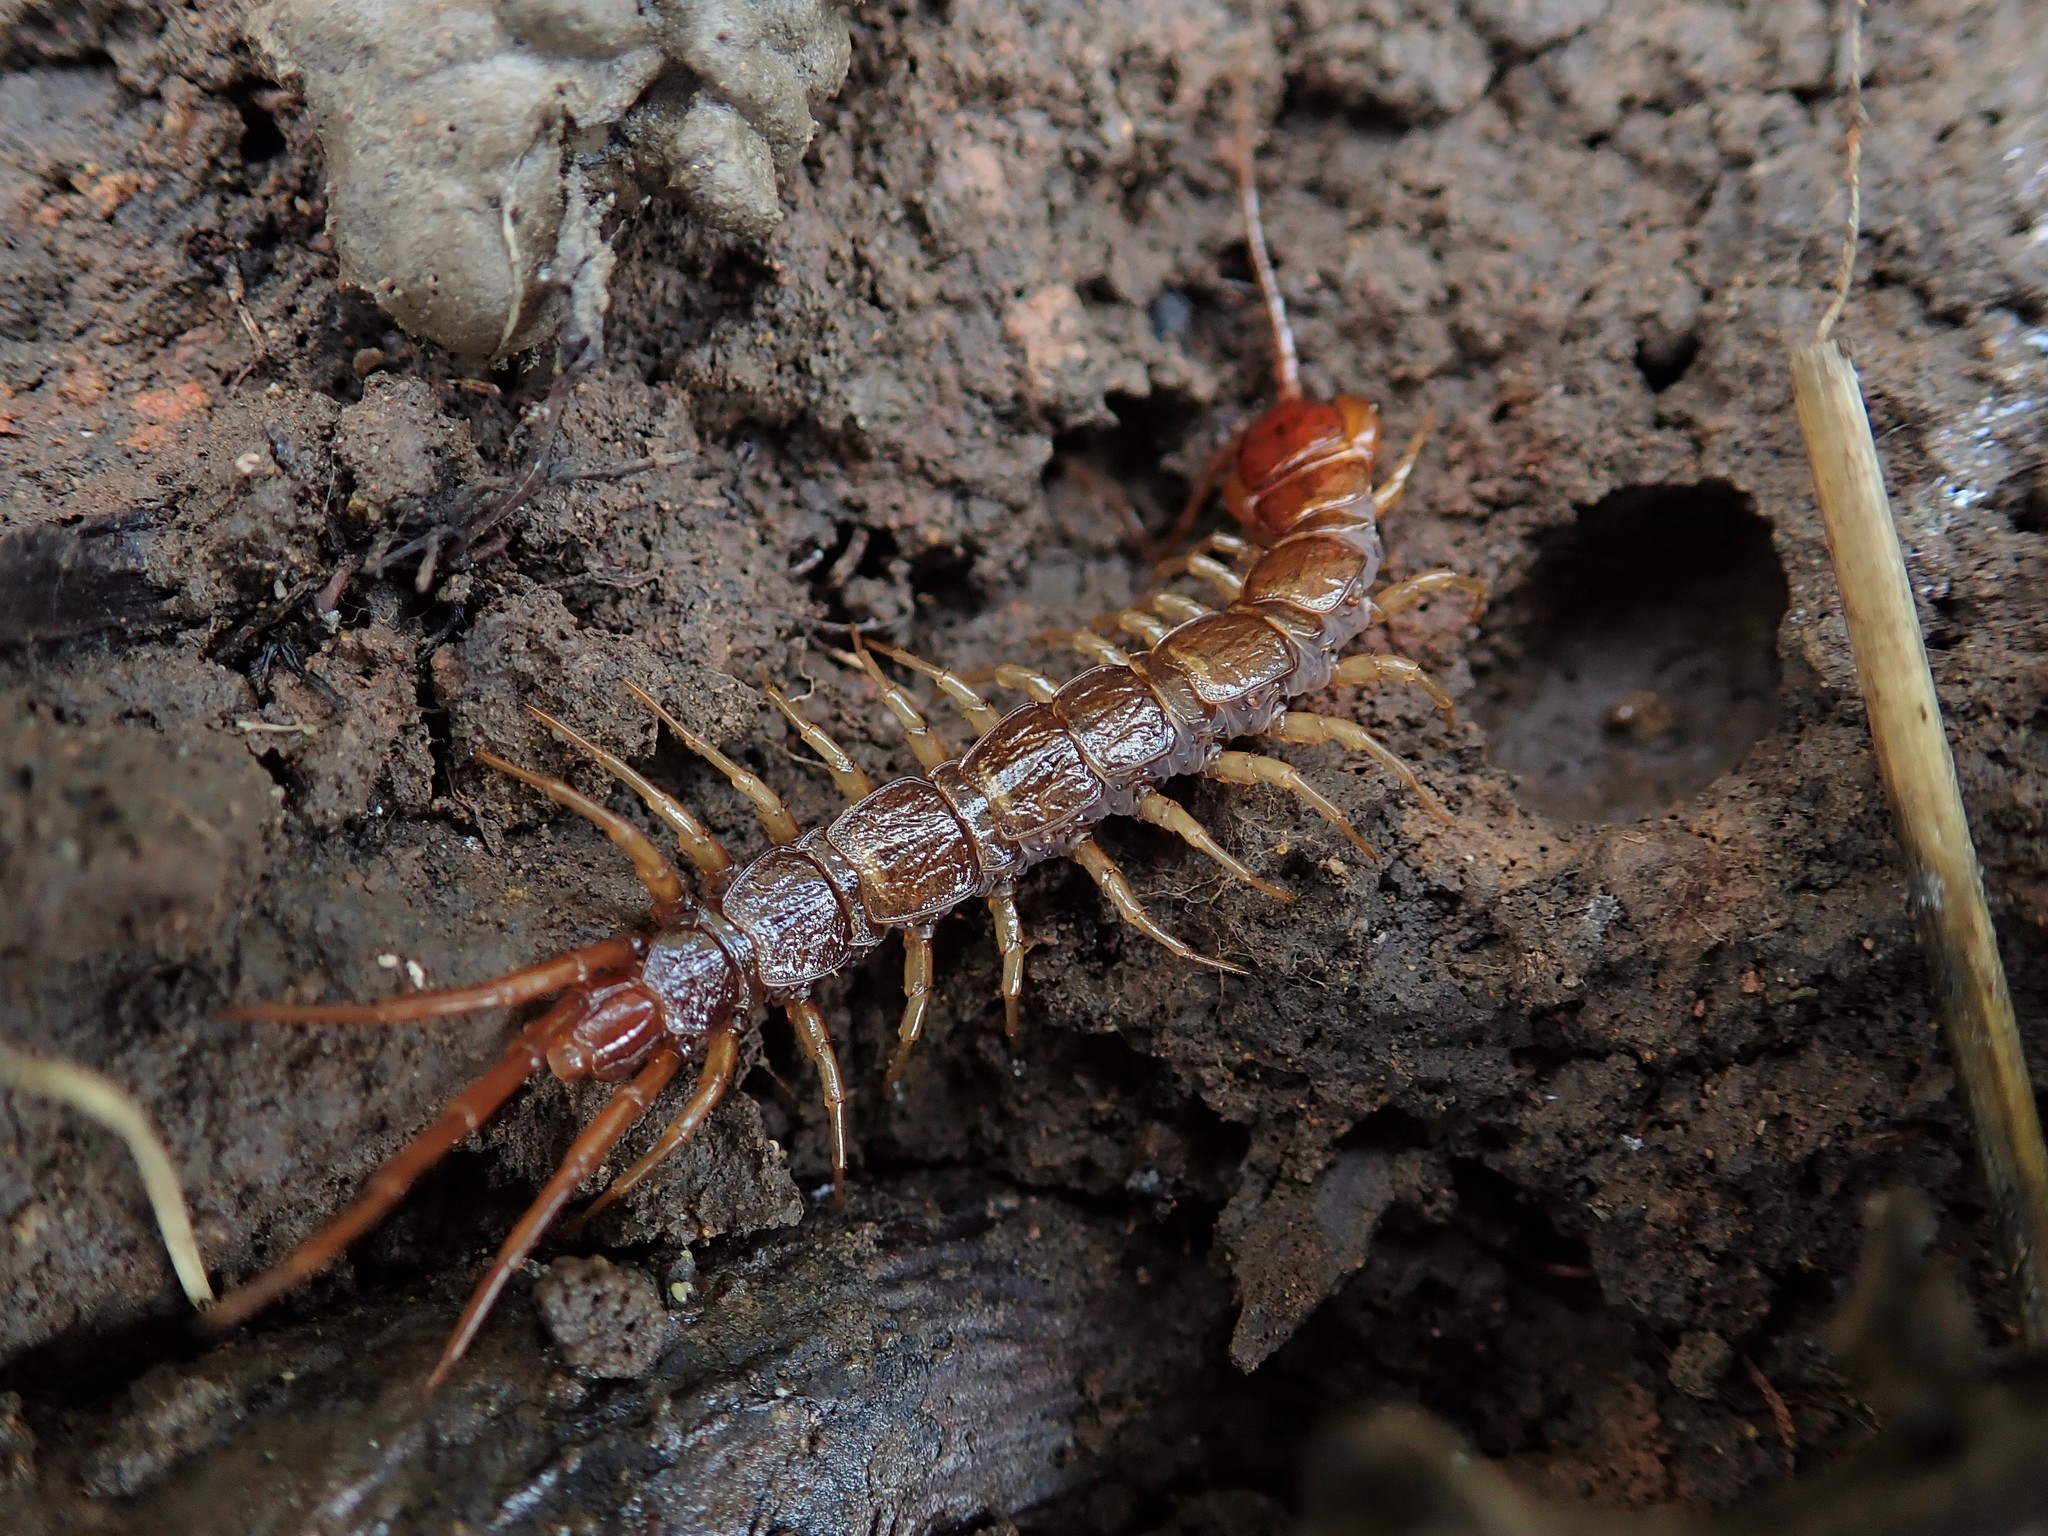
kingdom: Animalia
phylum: Arthropoda
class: Chilopoda
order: Lithobiomorpha
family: Lithobiidae
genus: Bothropolys
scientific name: Bothropolys xanti
